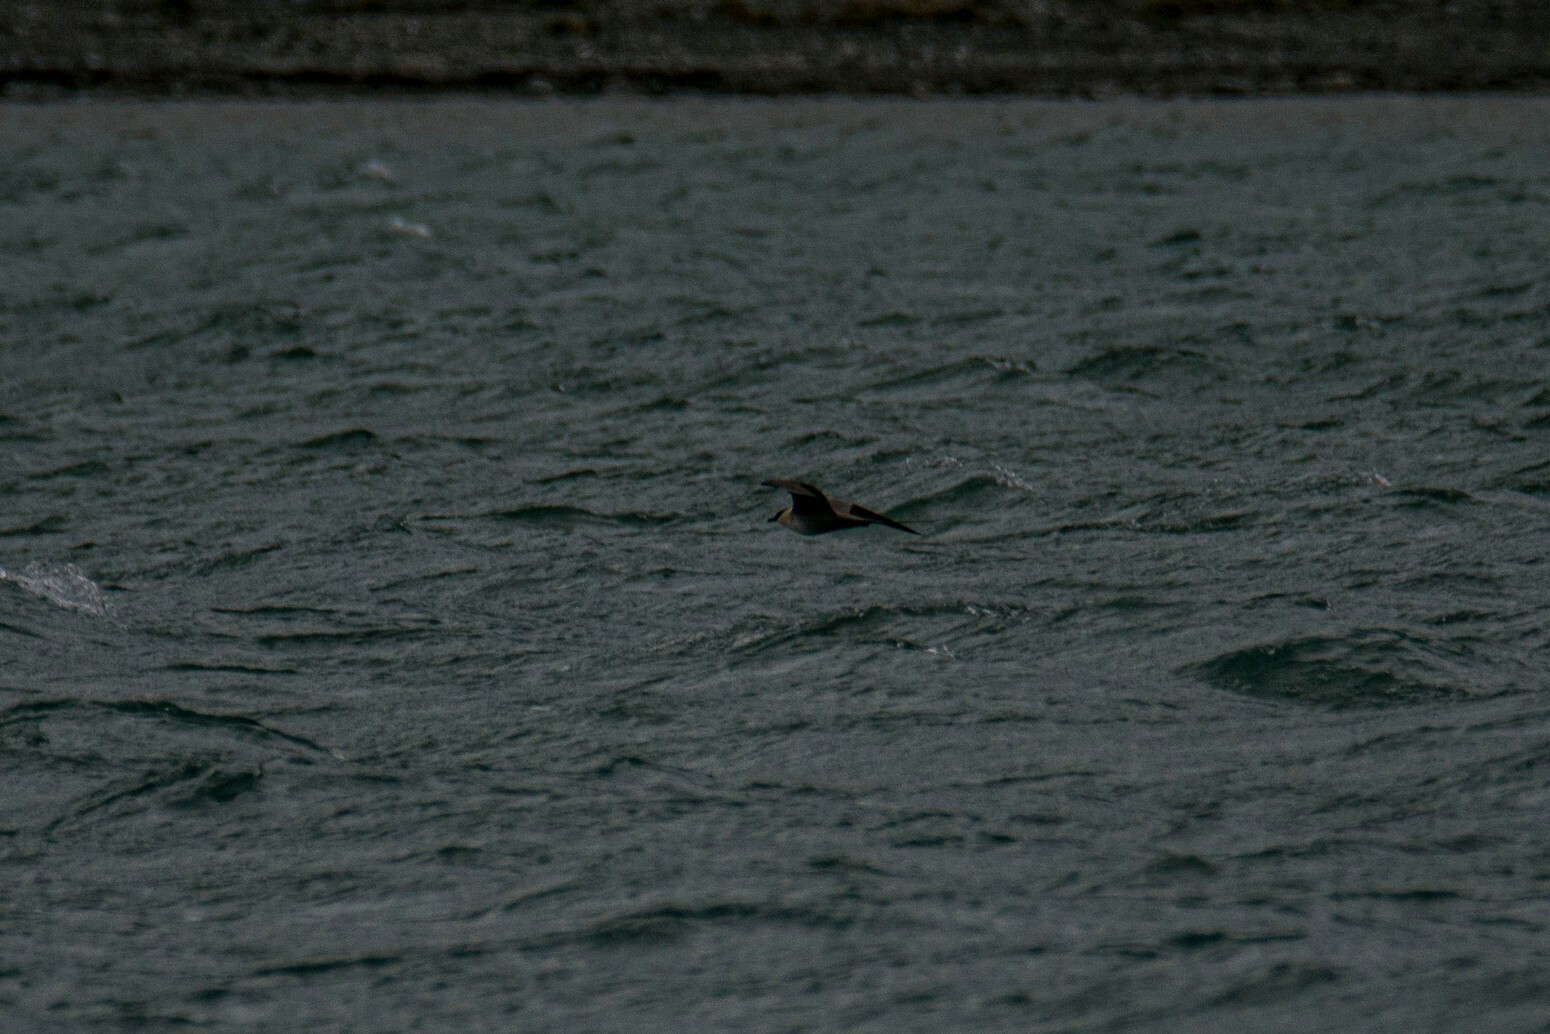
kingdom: Animalia
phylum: Chordata
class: Aves
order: Charadriiformes
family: Stercorariidae
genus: Stercorarius
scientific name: Stercorarius longicaudus
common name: Long-tailed jaeger
